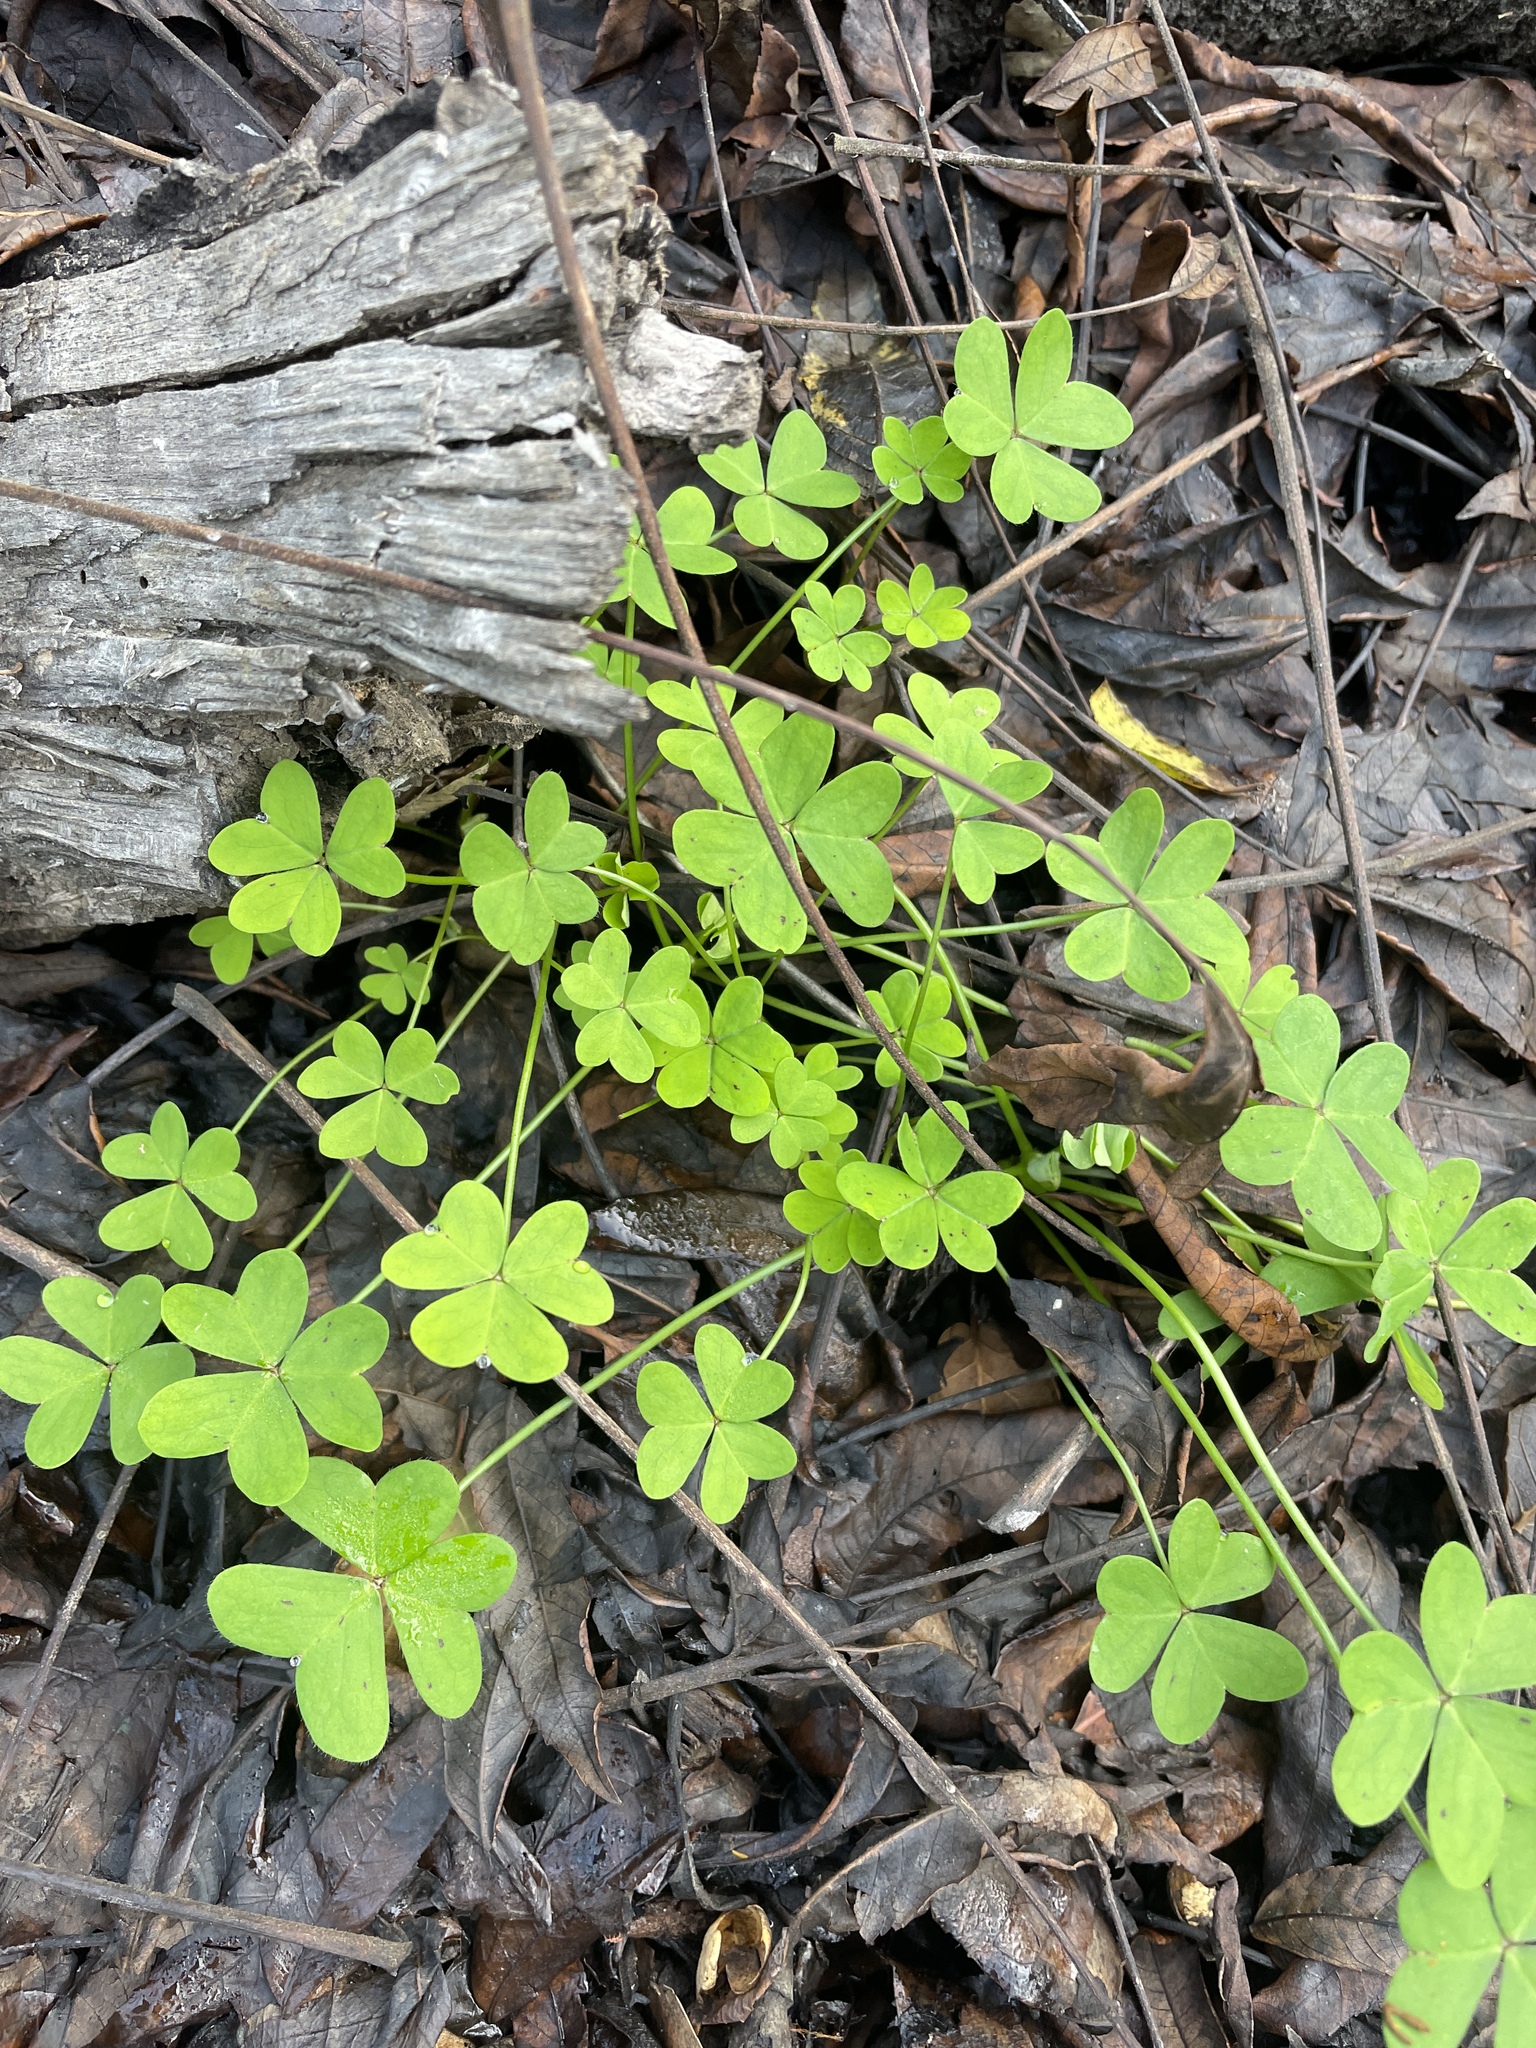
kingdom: Plantae
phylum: Tracheophyta
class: Magnoliopsida
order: Oxalidales
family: Oxalidaceae
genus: Oxalis
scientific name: Oxalis pes-caprae
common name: Bermuda-buttercup
